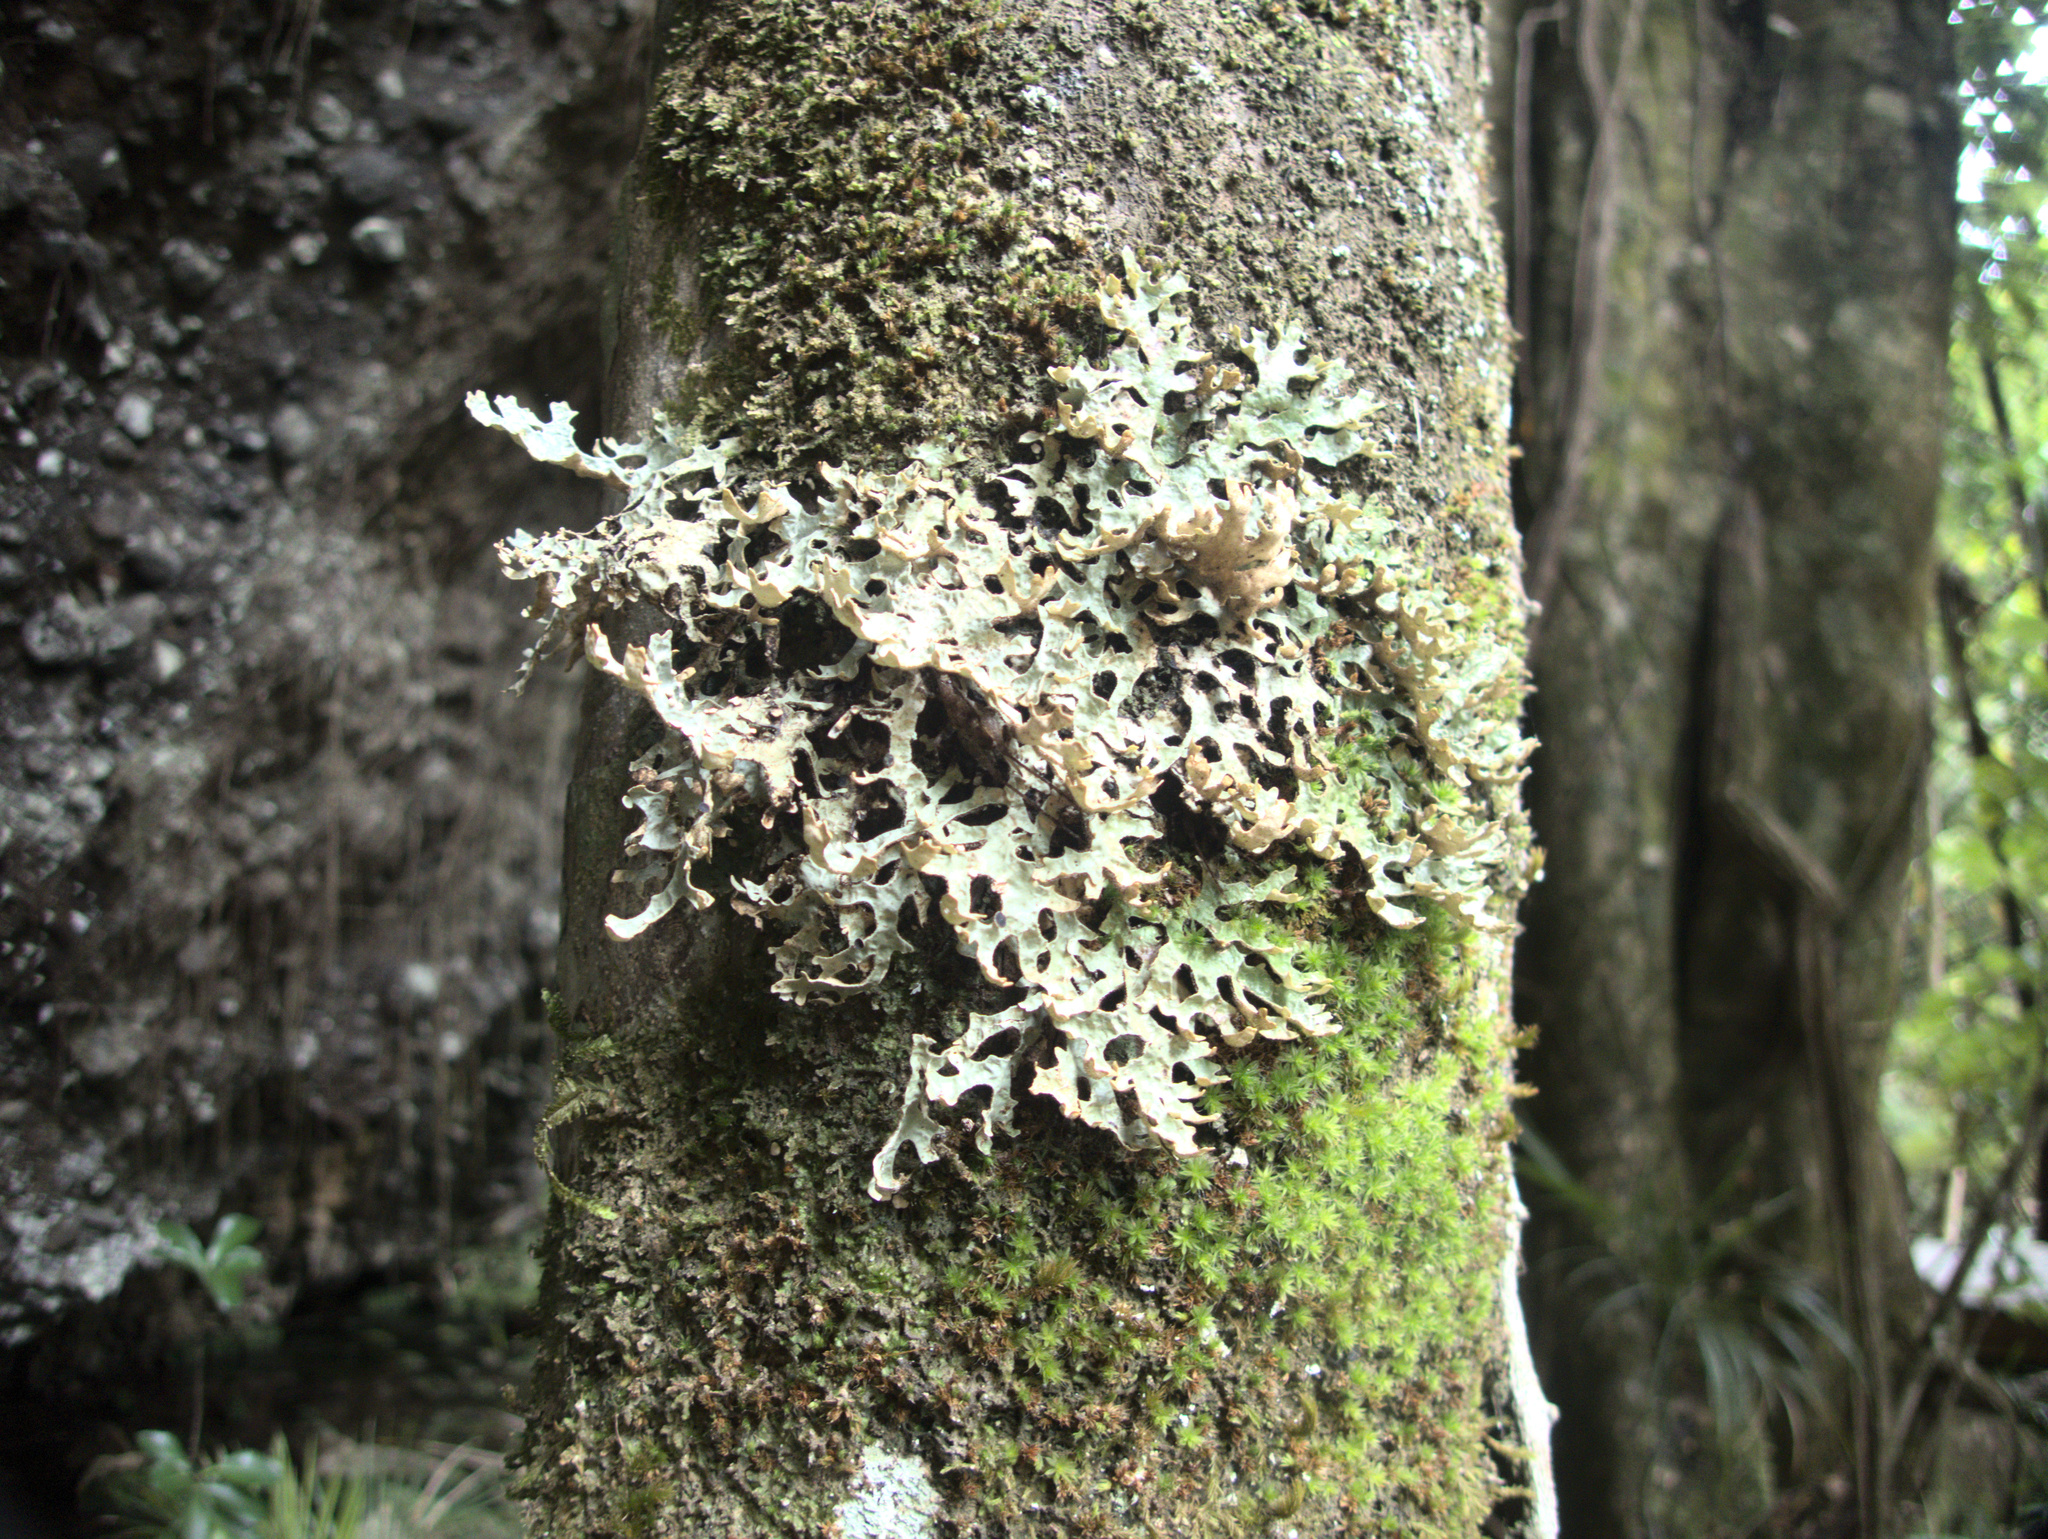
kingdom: Fungi
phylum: Ascomycota
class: Lecanoromycetes
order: Peltigerales
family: Lobariaceae
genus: Pseudocyphellaria
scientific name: Pseudocyphellaria carpoloma
